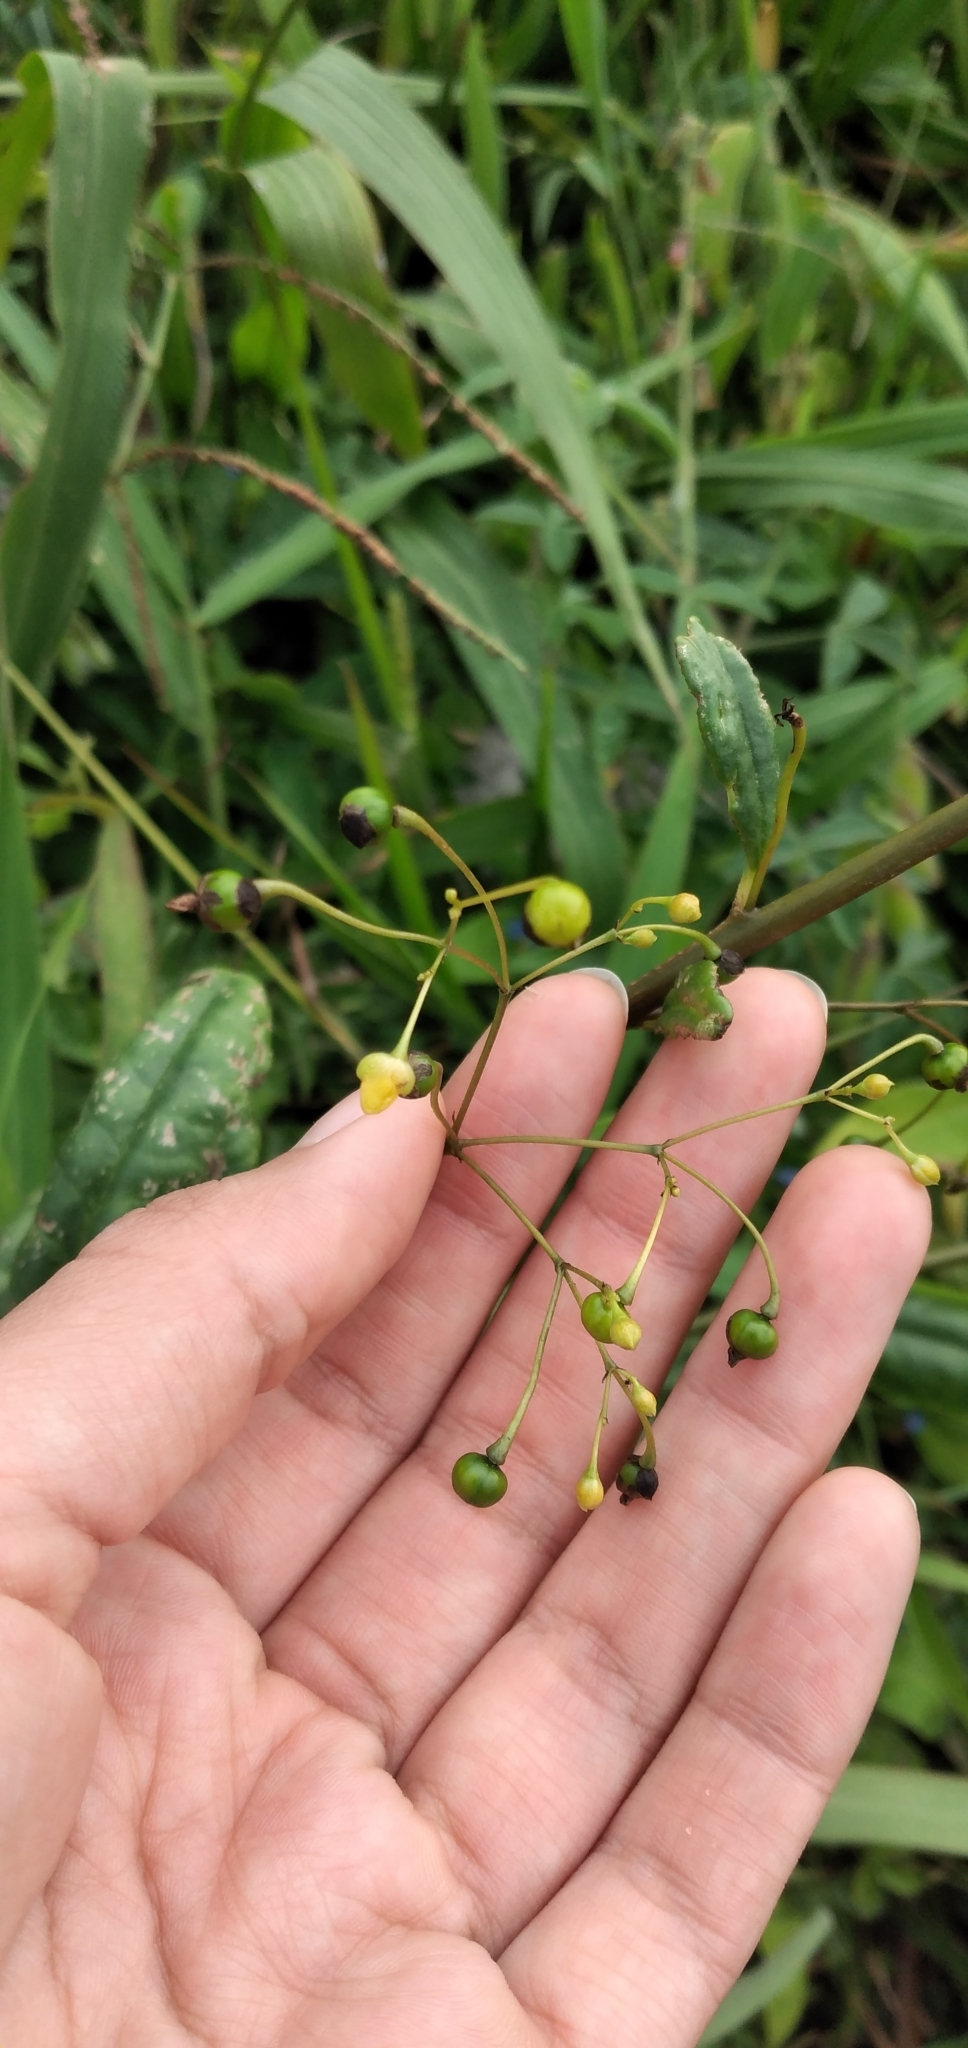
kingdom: Plantae
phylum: Tracheophyta
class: Magnoliopsida
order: Caryophyllales
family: Talinaceae
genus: Talinum
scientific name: Talinum paniculatum
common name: Jewels of opar
